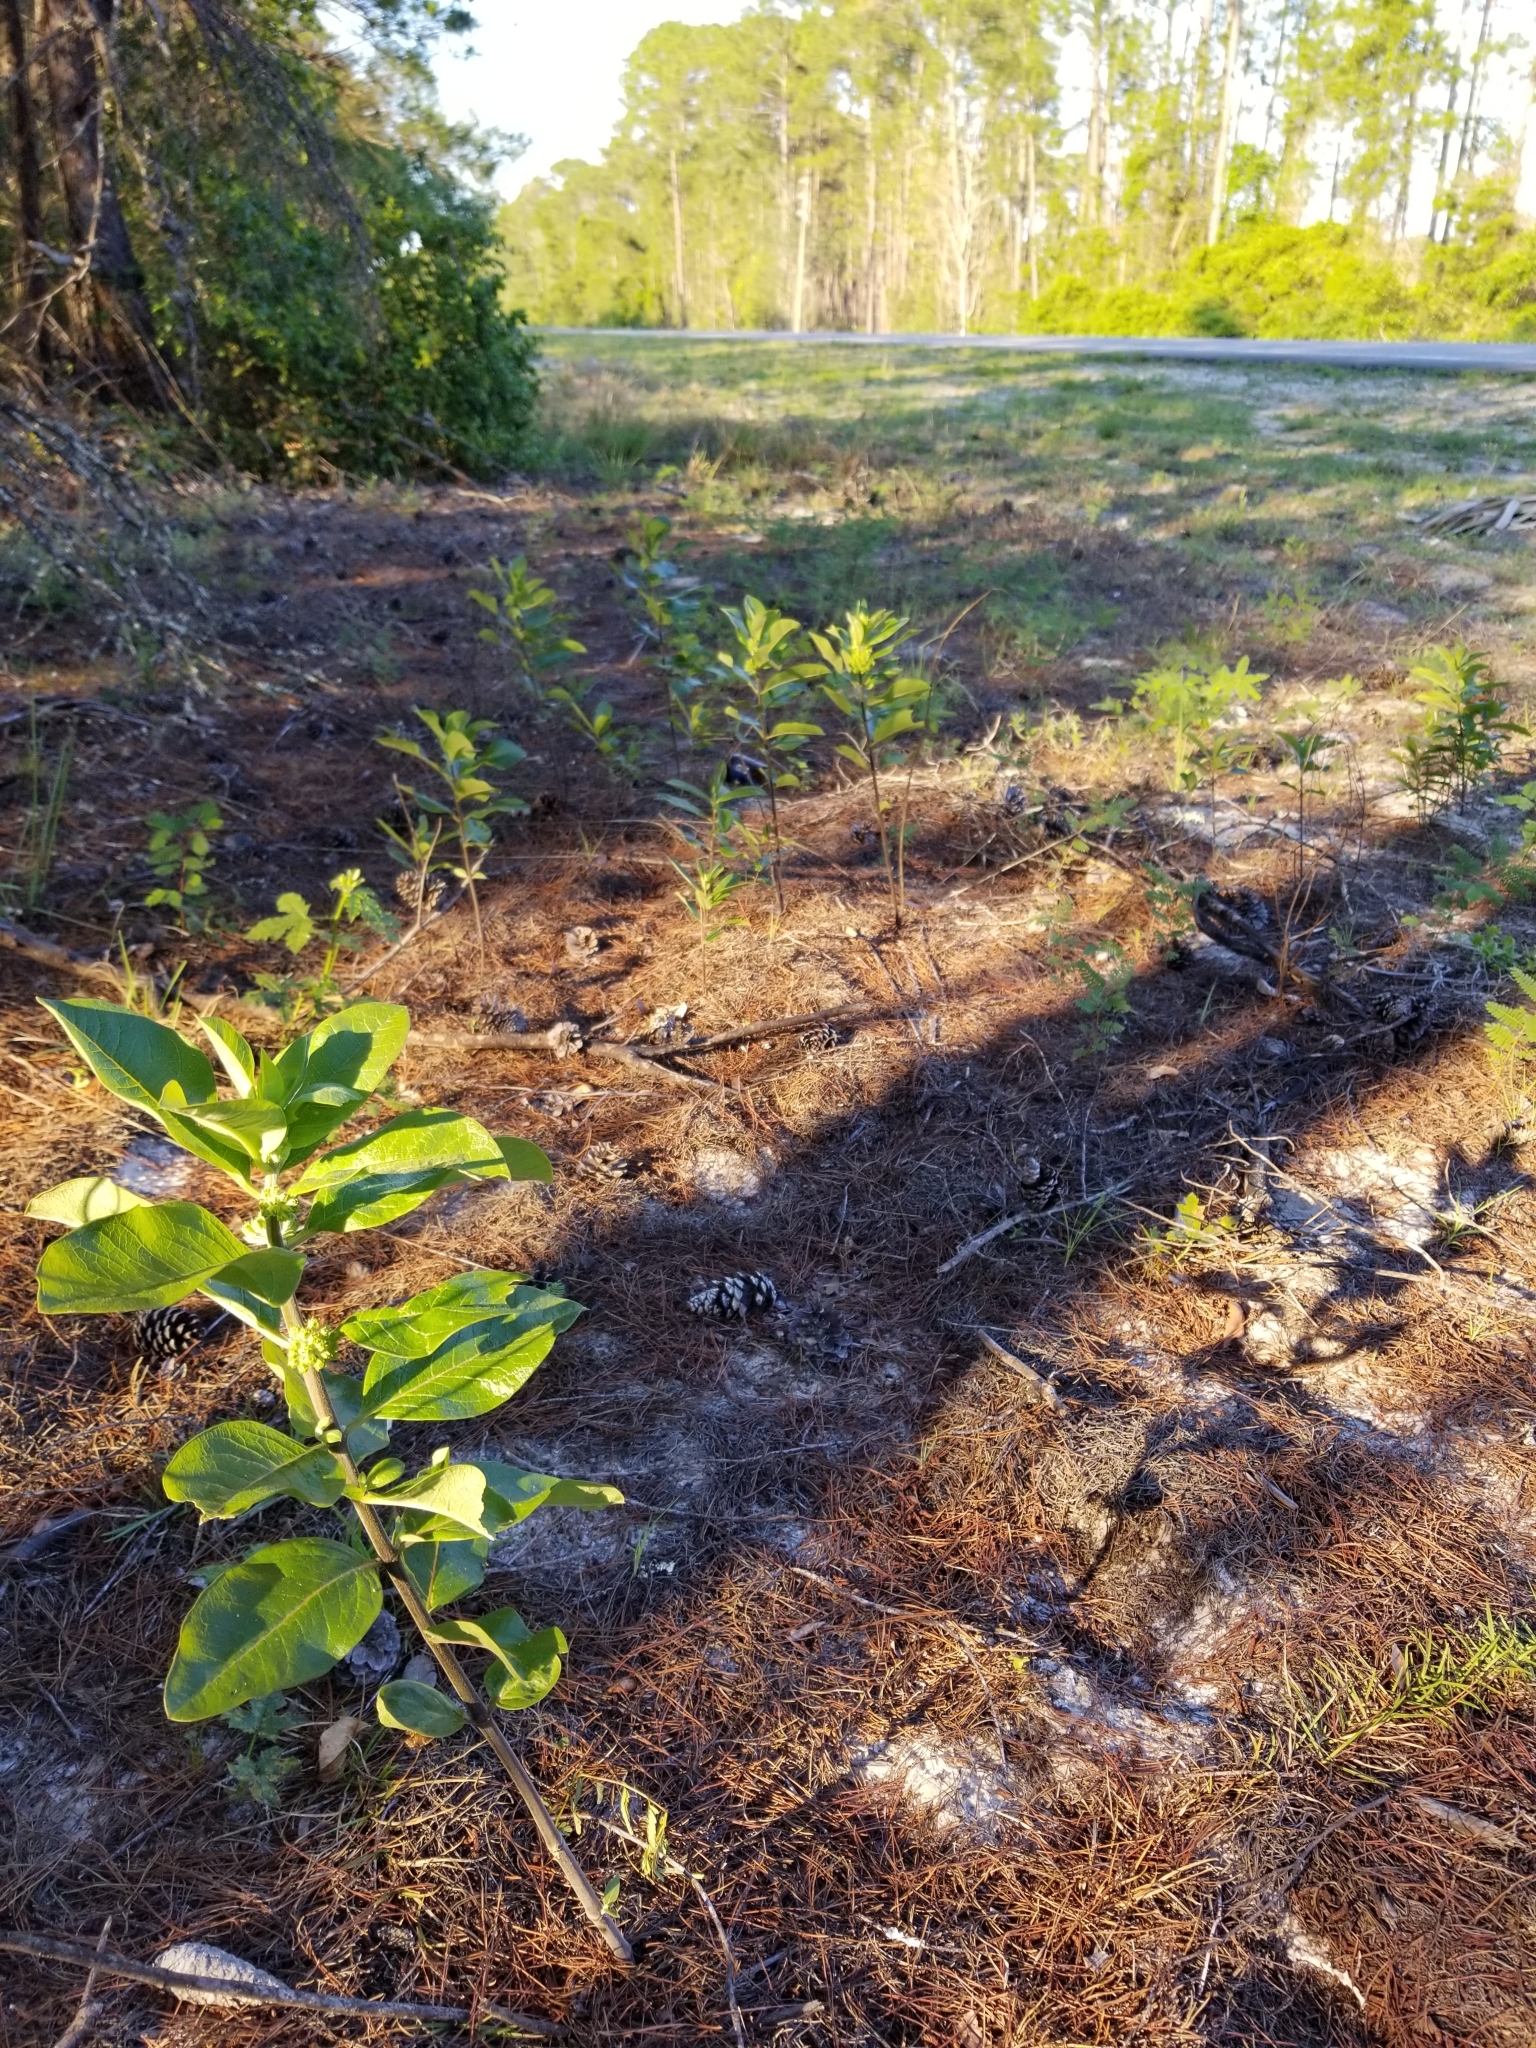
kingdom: Plantae
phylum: Tracheophyta
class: Magnoliopsida
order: Gentianales
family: Apocynaceae
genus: Asclepias
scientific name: Asclepias tomentosa
